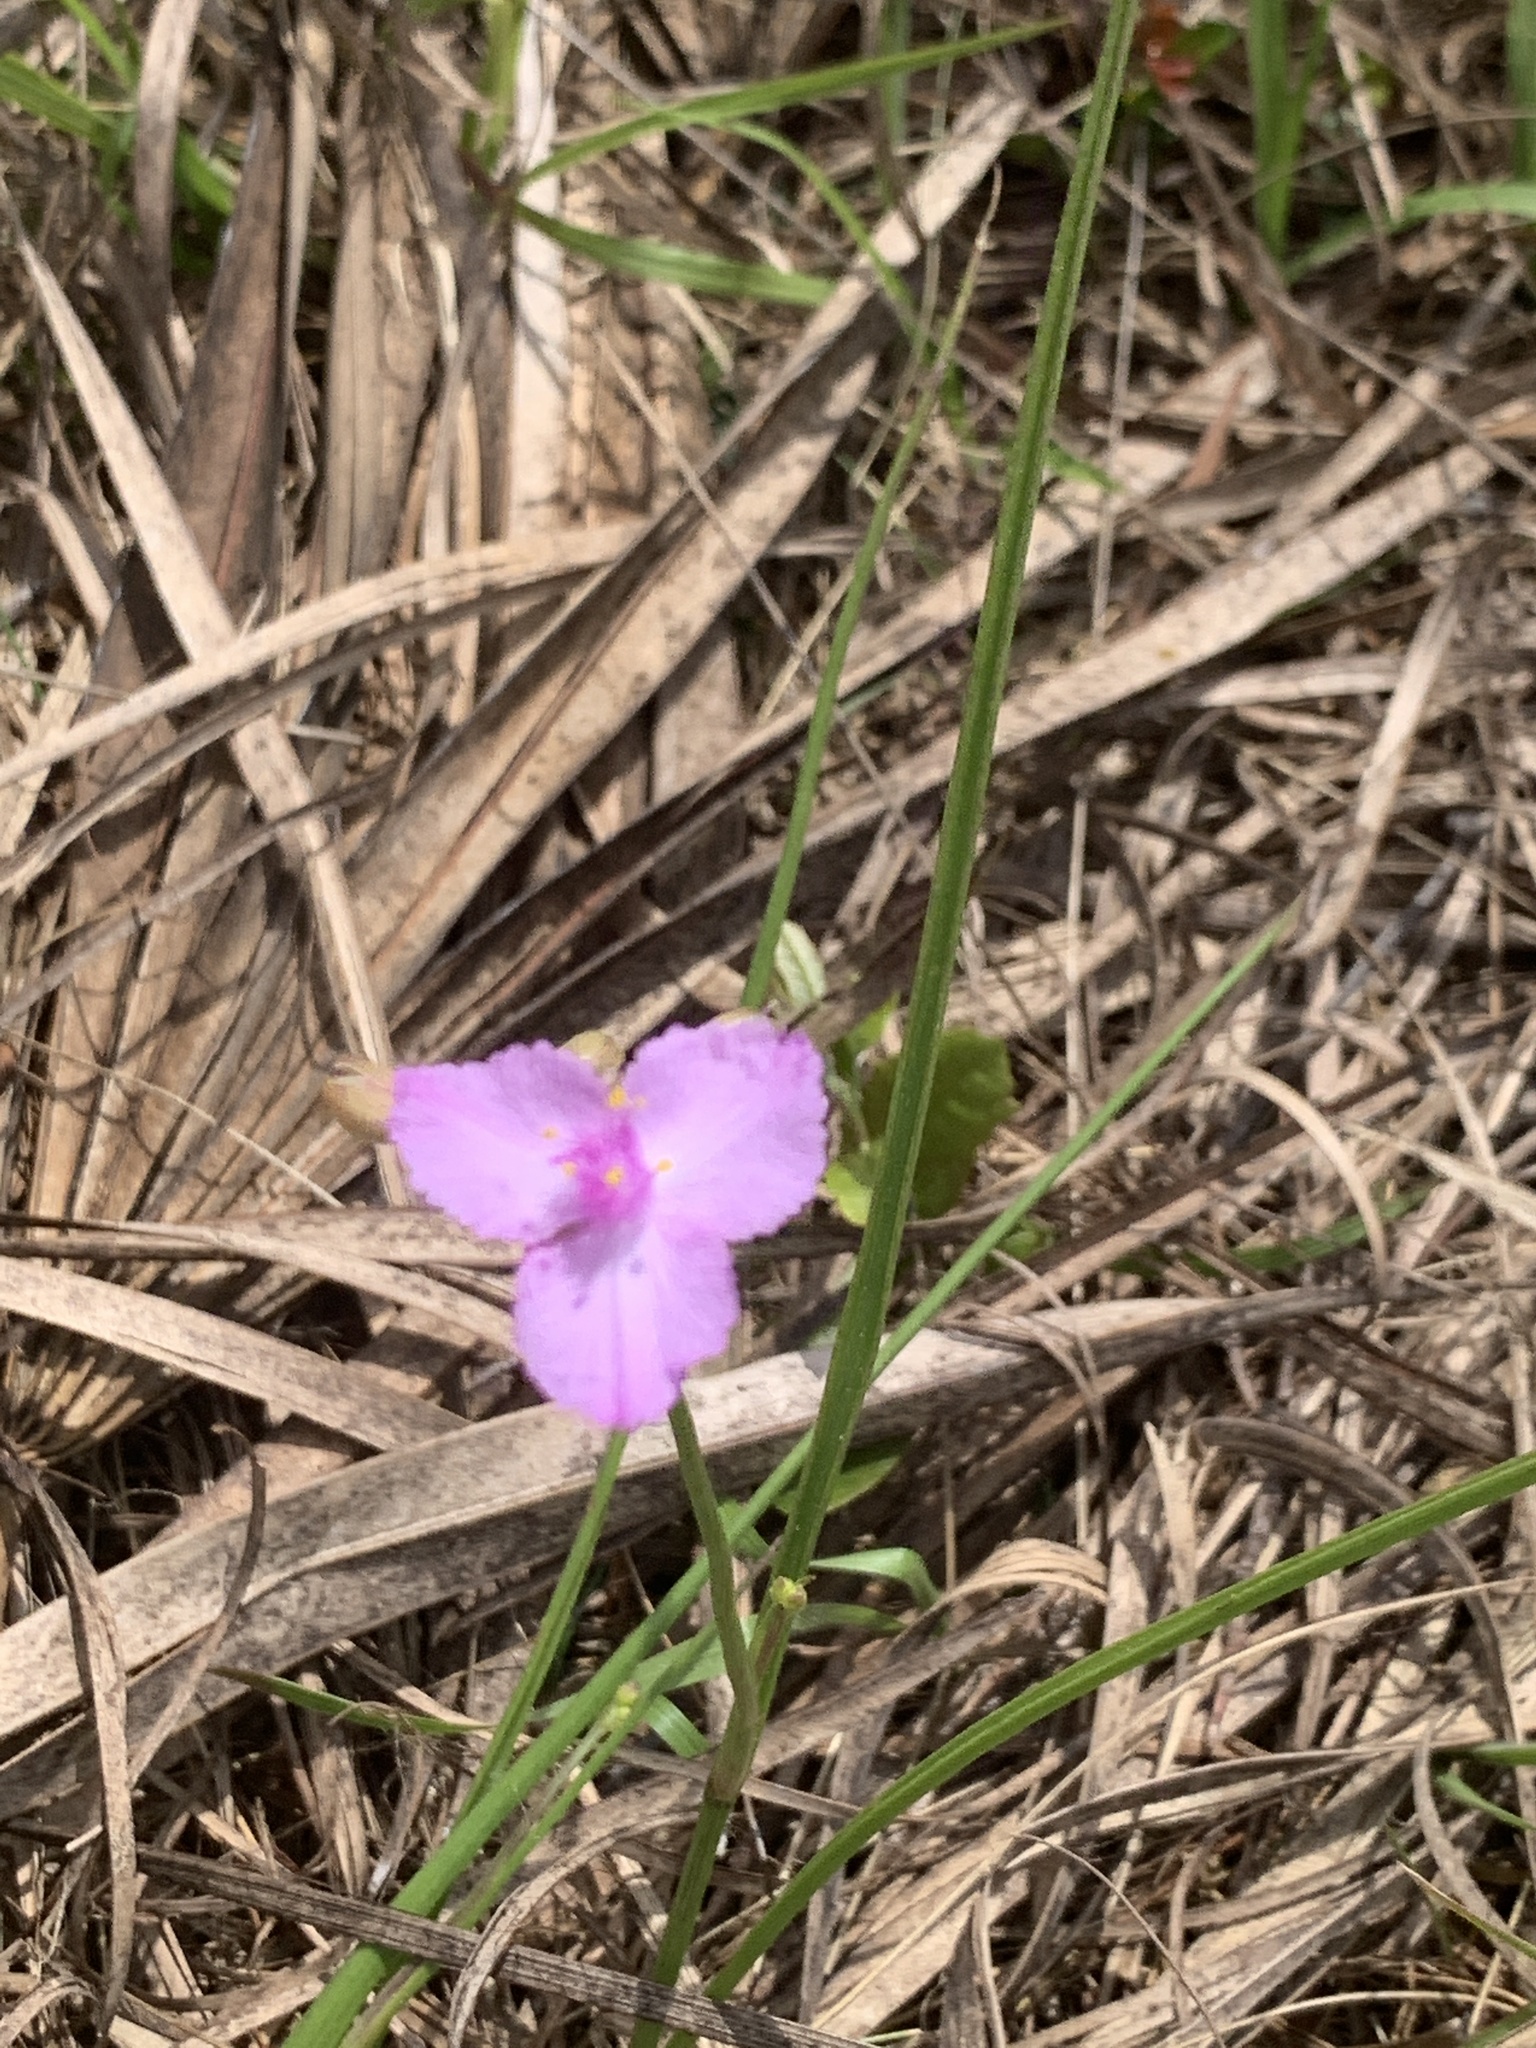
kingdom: Plantae
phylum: Tracheophyta
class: Liliopsida
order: Commelinales
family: Commelinaceae
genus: Callisia
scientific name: Callisia ornata
